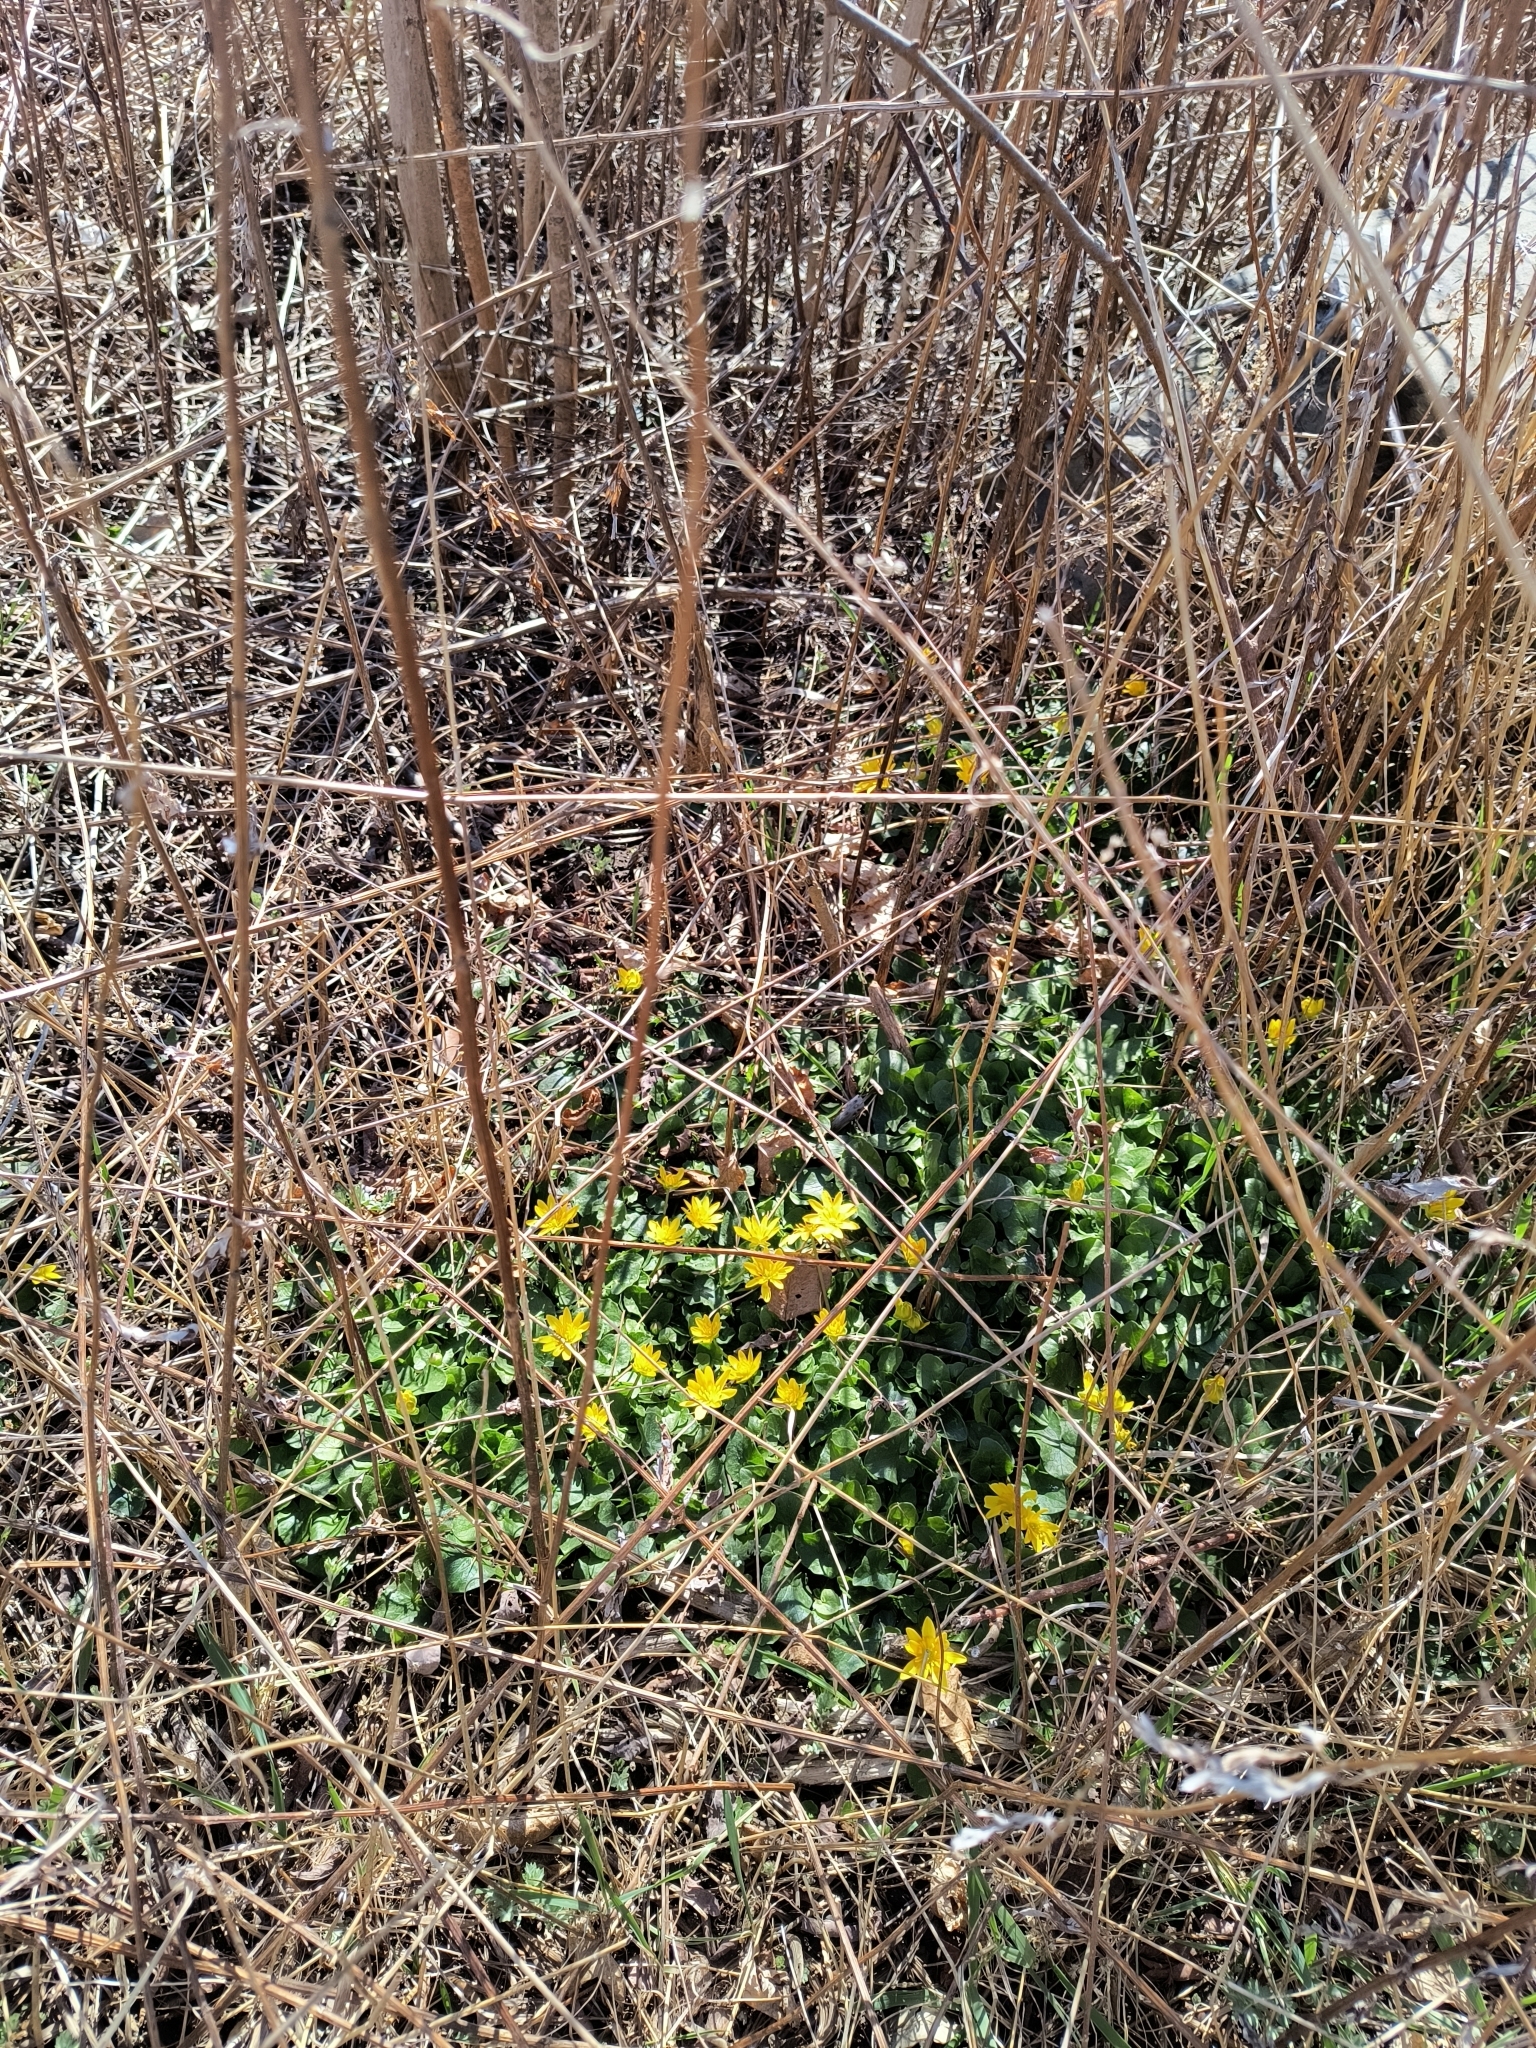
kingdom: Plantae
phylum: Tracheophyta
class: Magnoliopsida
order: Ranunculales
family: Ranunculaceae
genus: Ficaria
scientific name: Ficaria verna
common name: Lesser celandine
